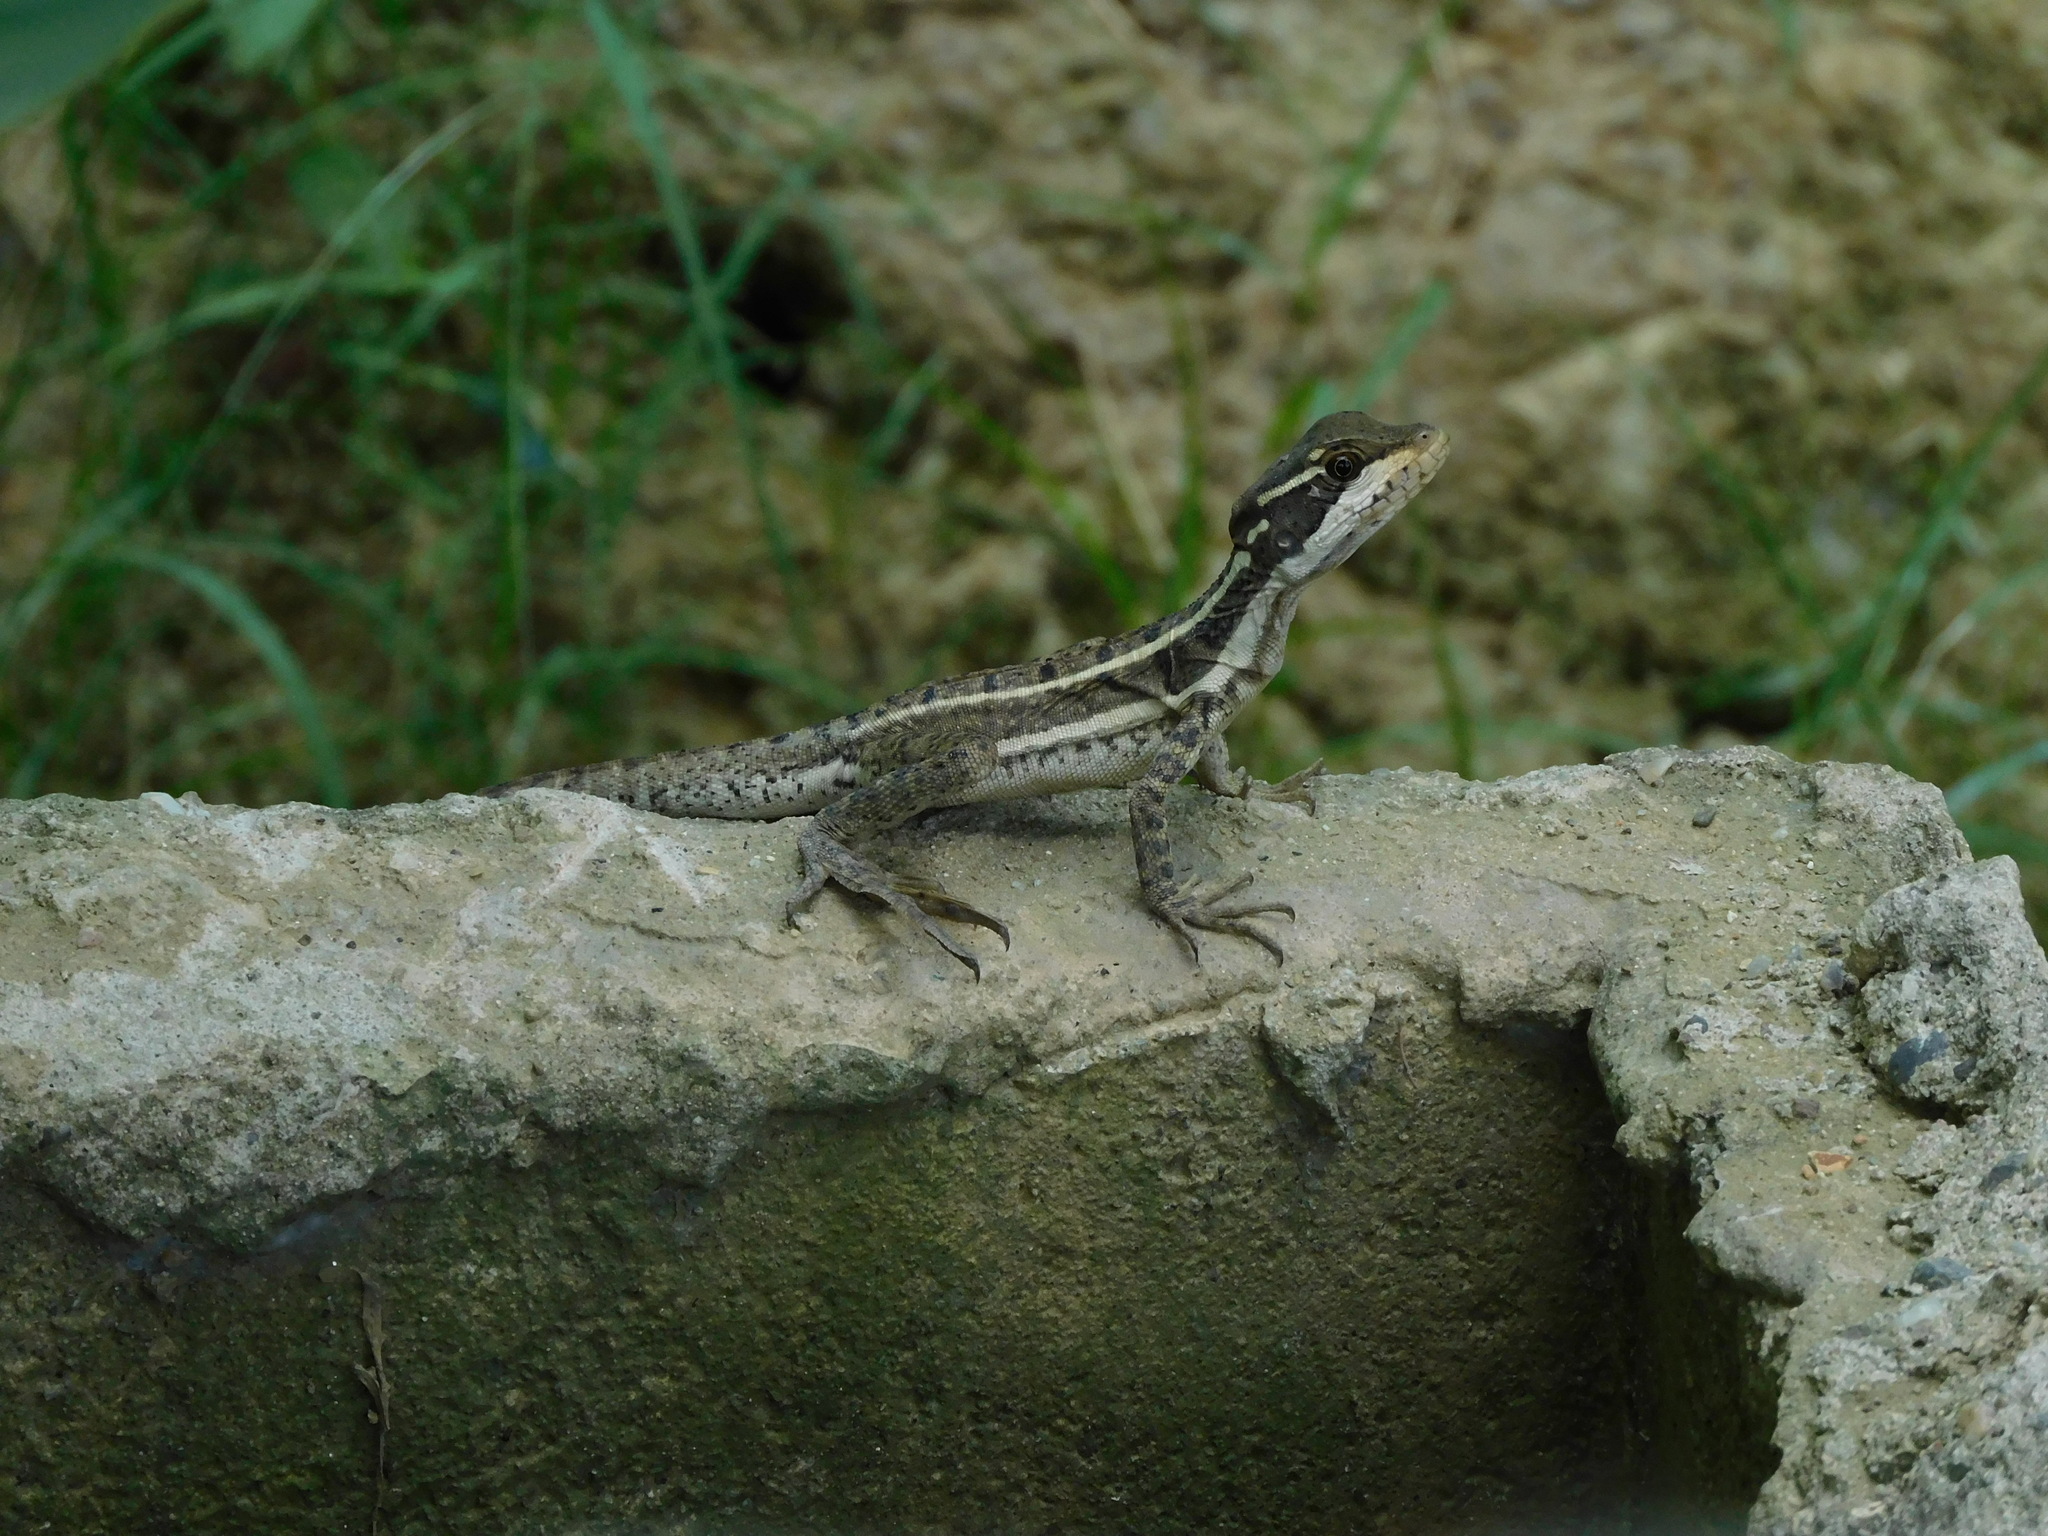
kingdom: Animalia
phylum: Chordata
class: Squamata
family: Corytophanidae
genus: Basiliscus
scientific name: Basiliscus basiliscus
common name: Common basilisk
